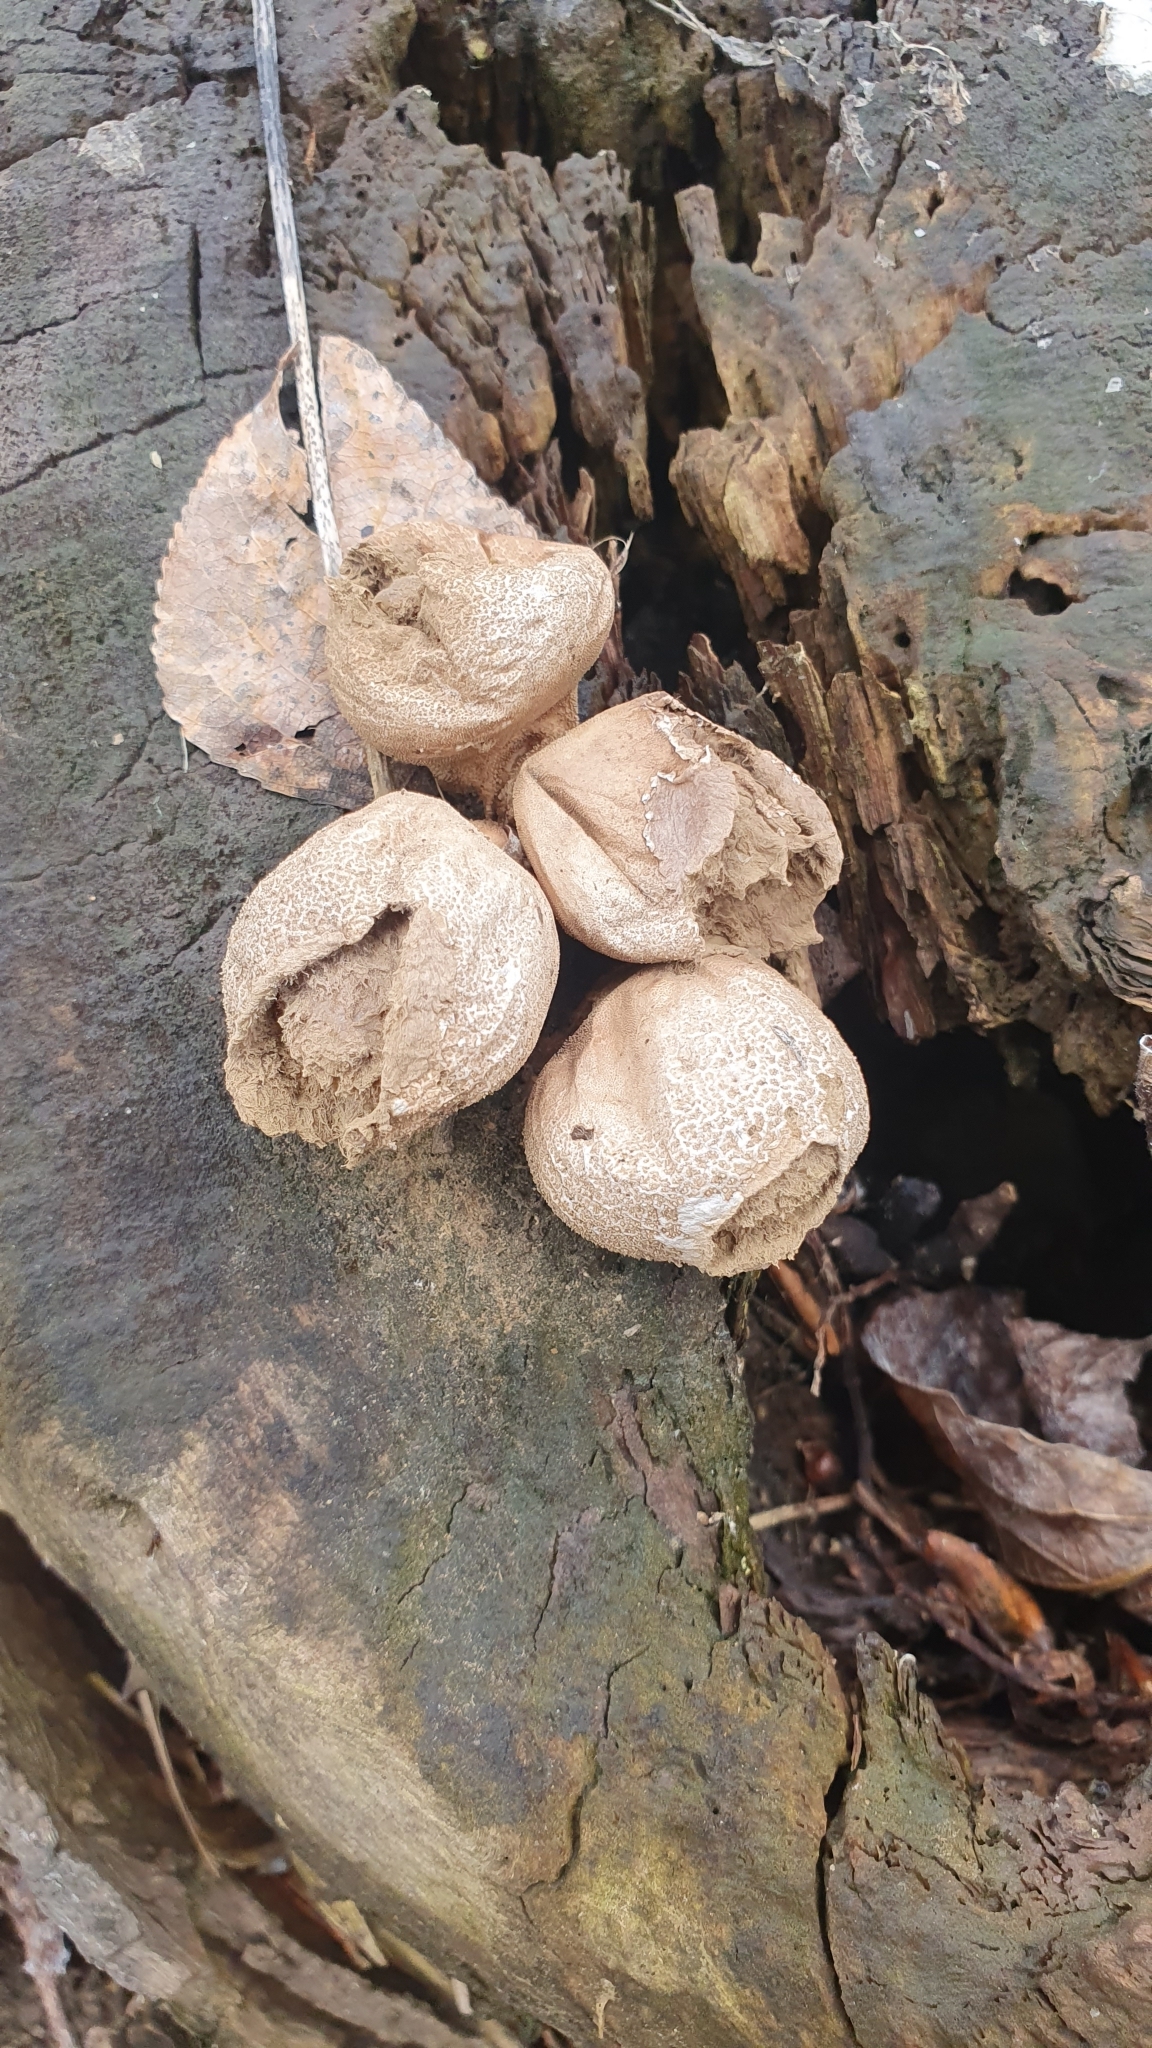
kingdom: Fungi
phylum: Basidiomycota
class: Agaricomycetes
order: Agaricales
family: Lycoperdaceae
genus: Apioperdon
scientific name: Apioperdon pyriforme
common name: Pear-shaped puffball
